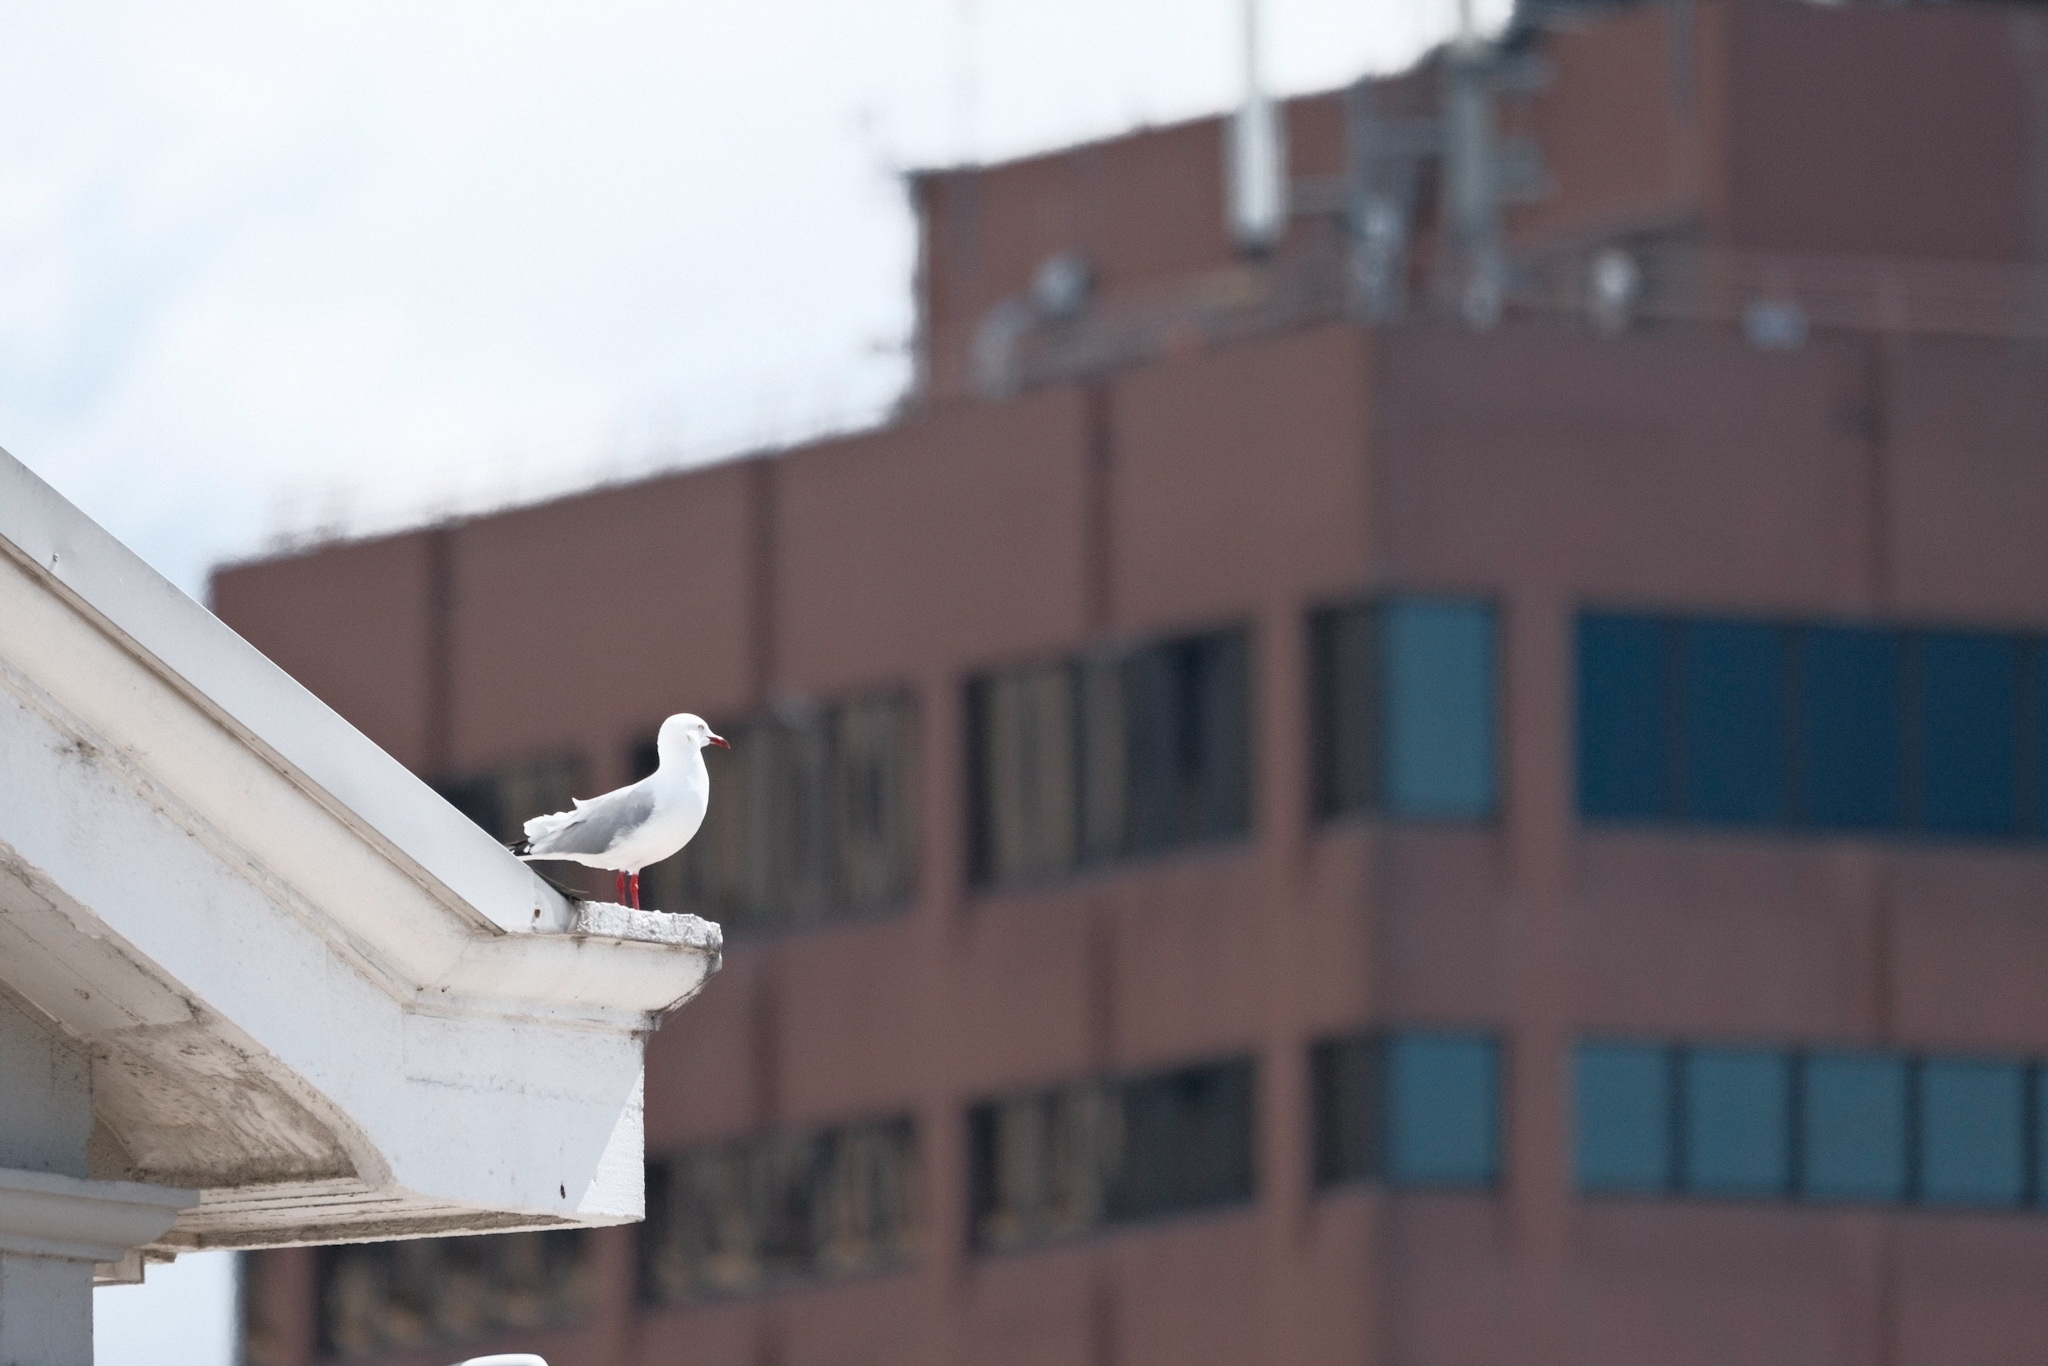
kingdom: Animalia
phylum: Chordata
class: Aves
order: Charadriiformes
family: Laridae
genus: Chroicocephalus
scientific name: Chroicocephalus novaehollandiae
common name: Silver gull
